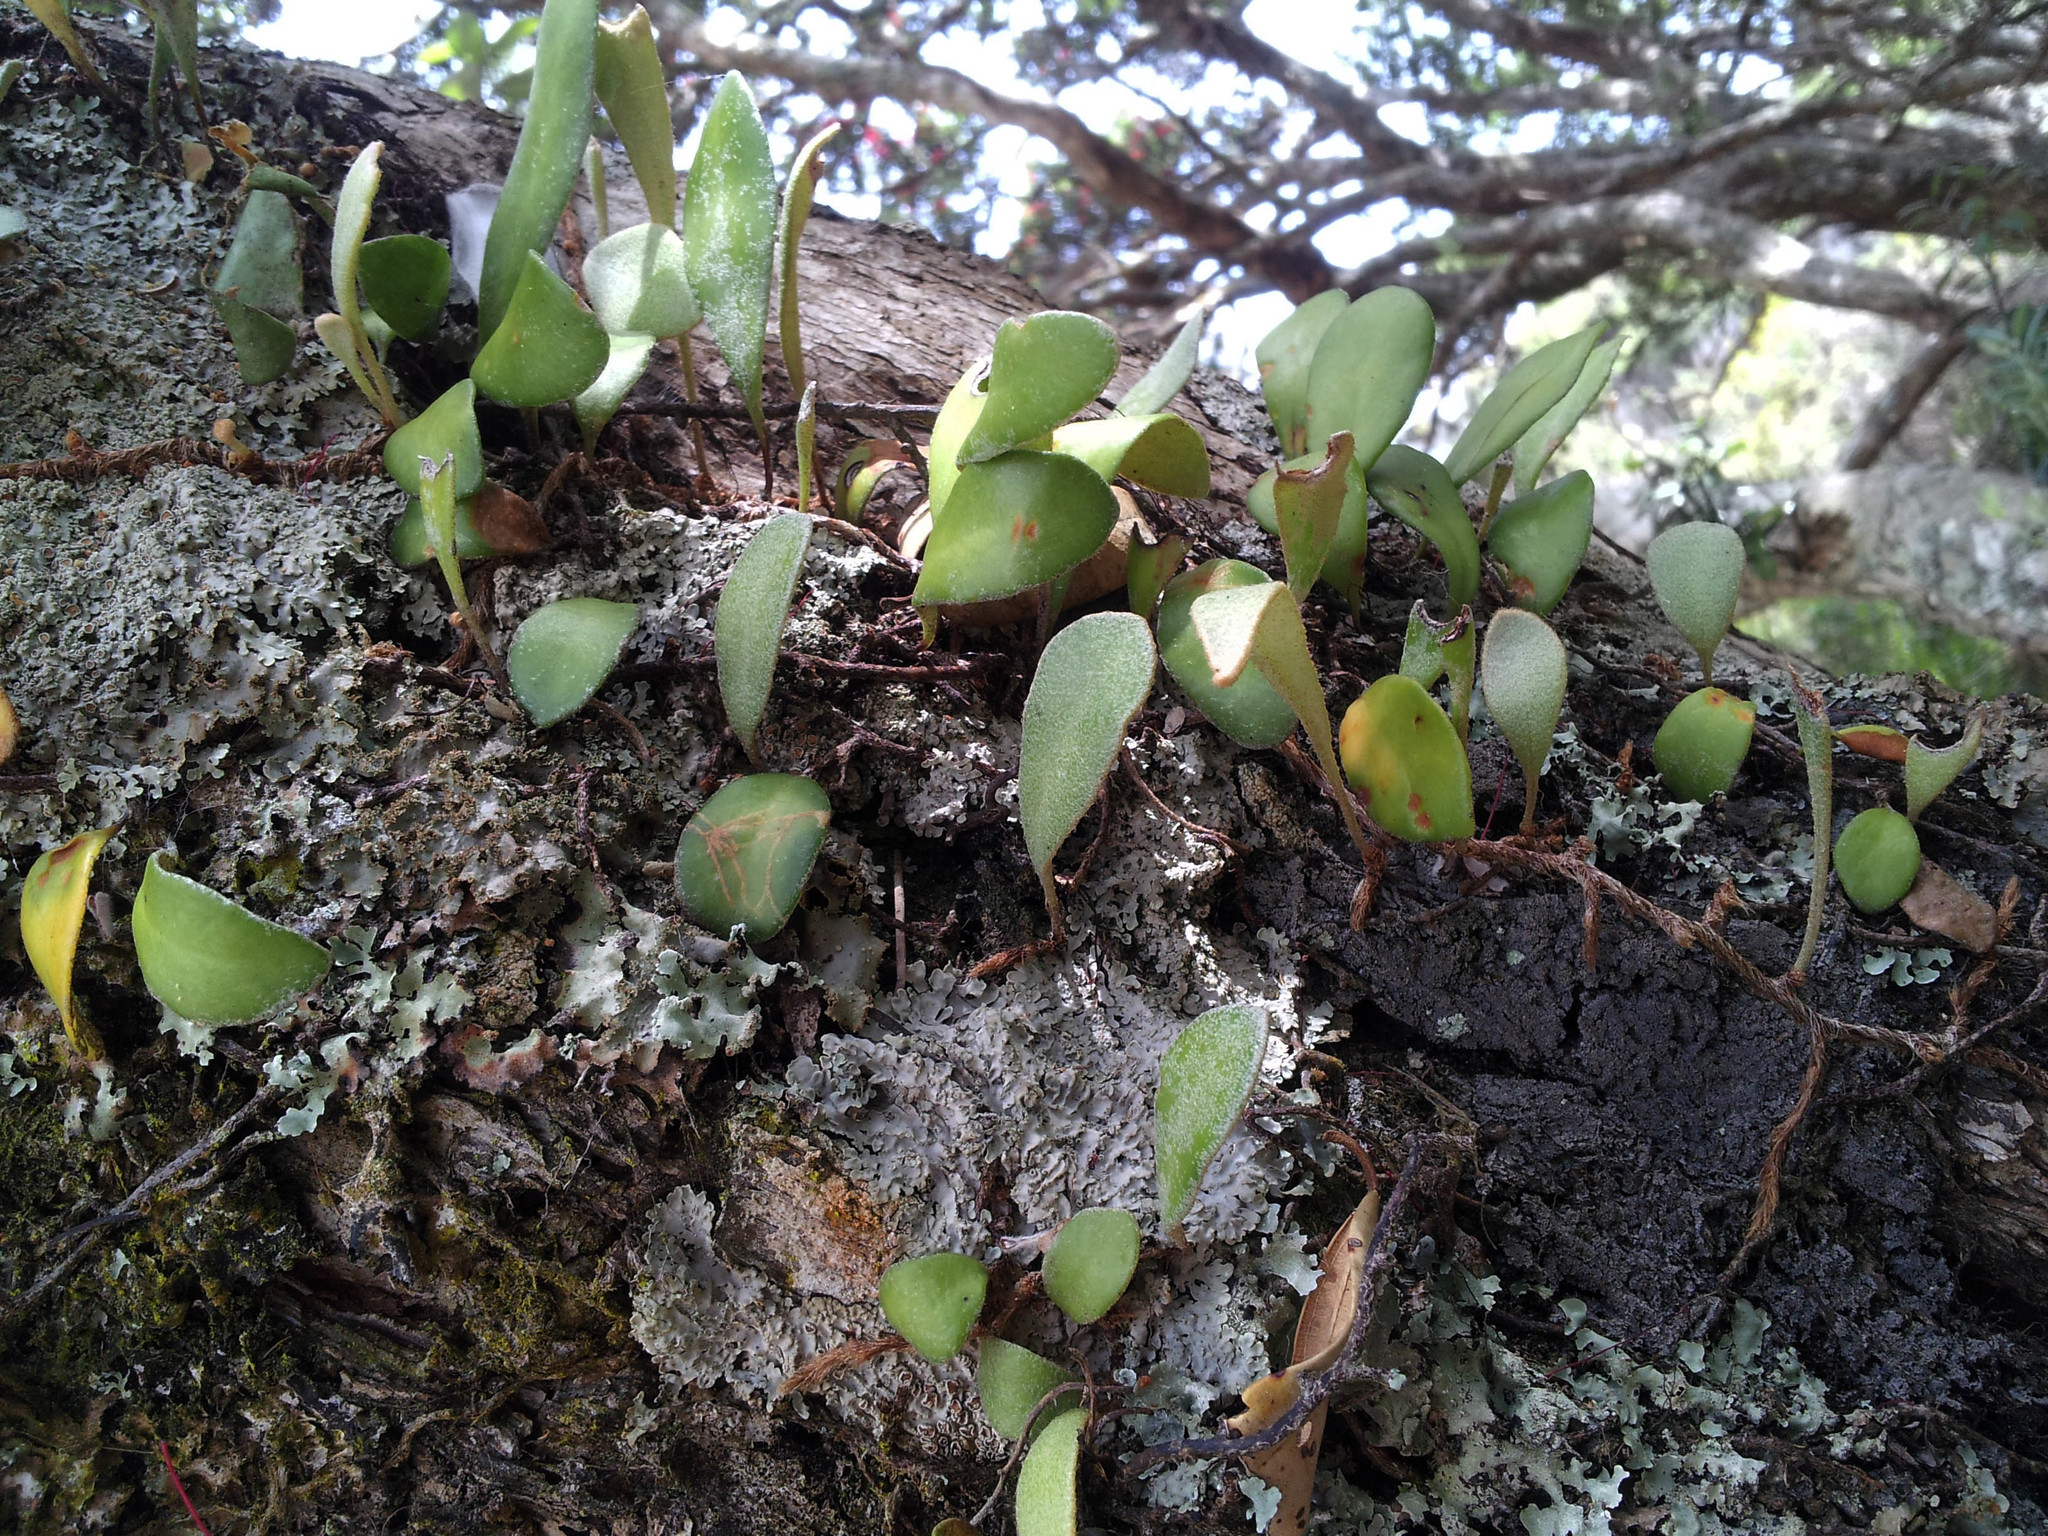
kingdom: Plantae
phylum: Tracheophyta
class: Polypodiopsida
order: Polypodiales
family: Polypodiaceae
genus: Pyrrosia
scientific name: Pyrrosia eleagnifolia
